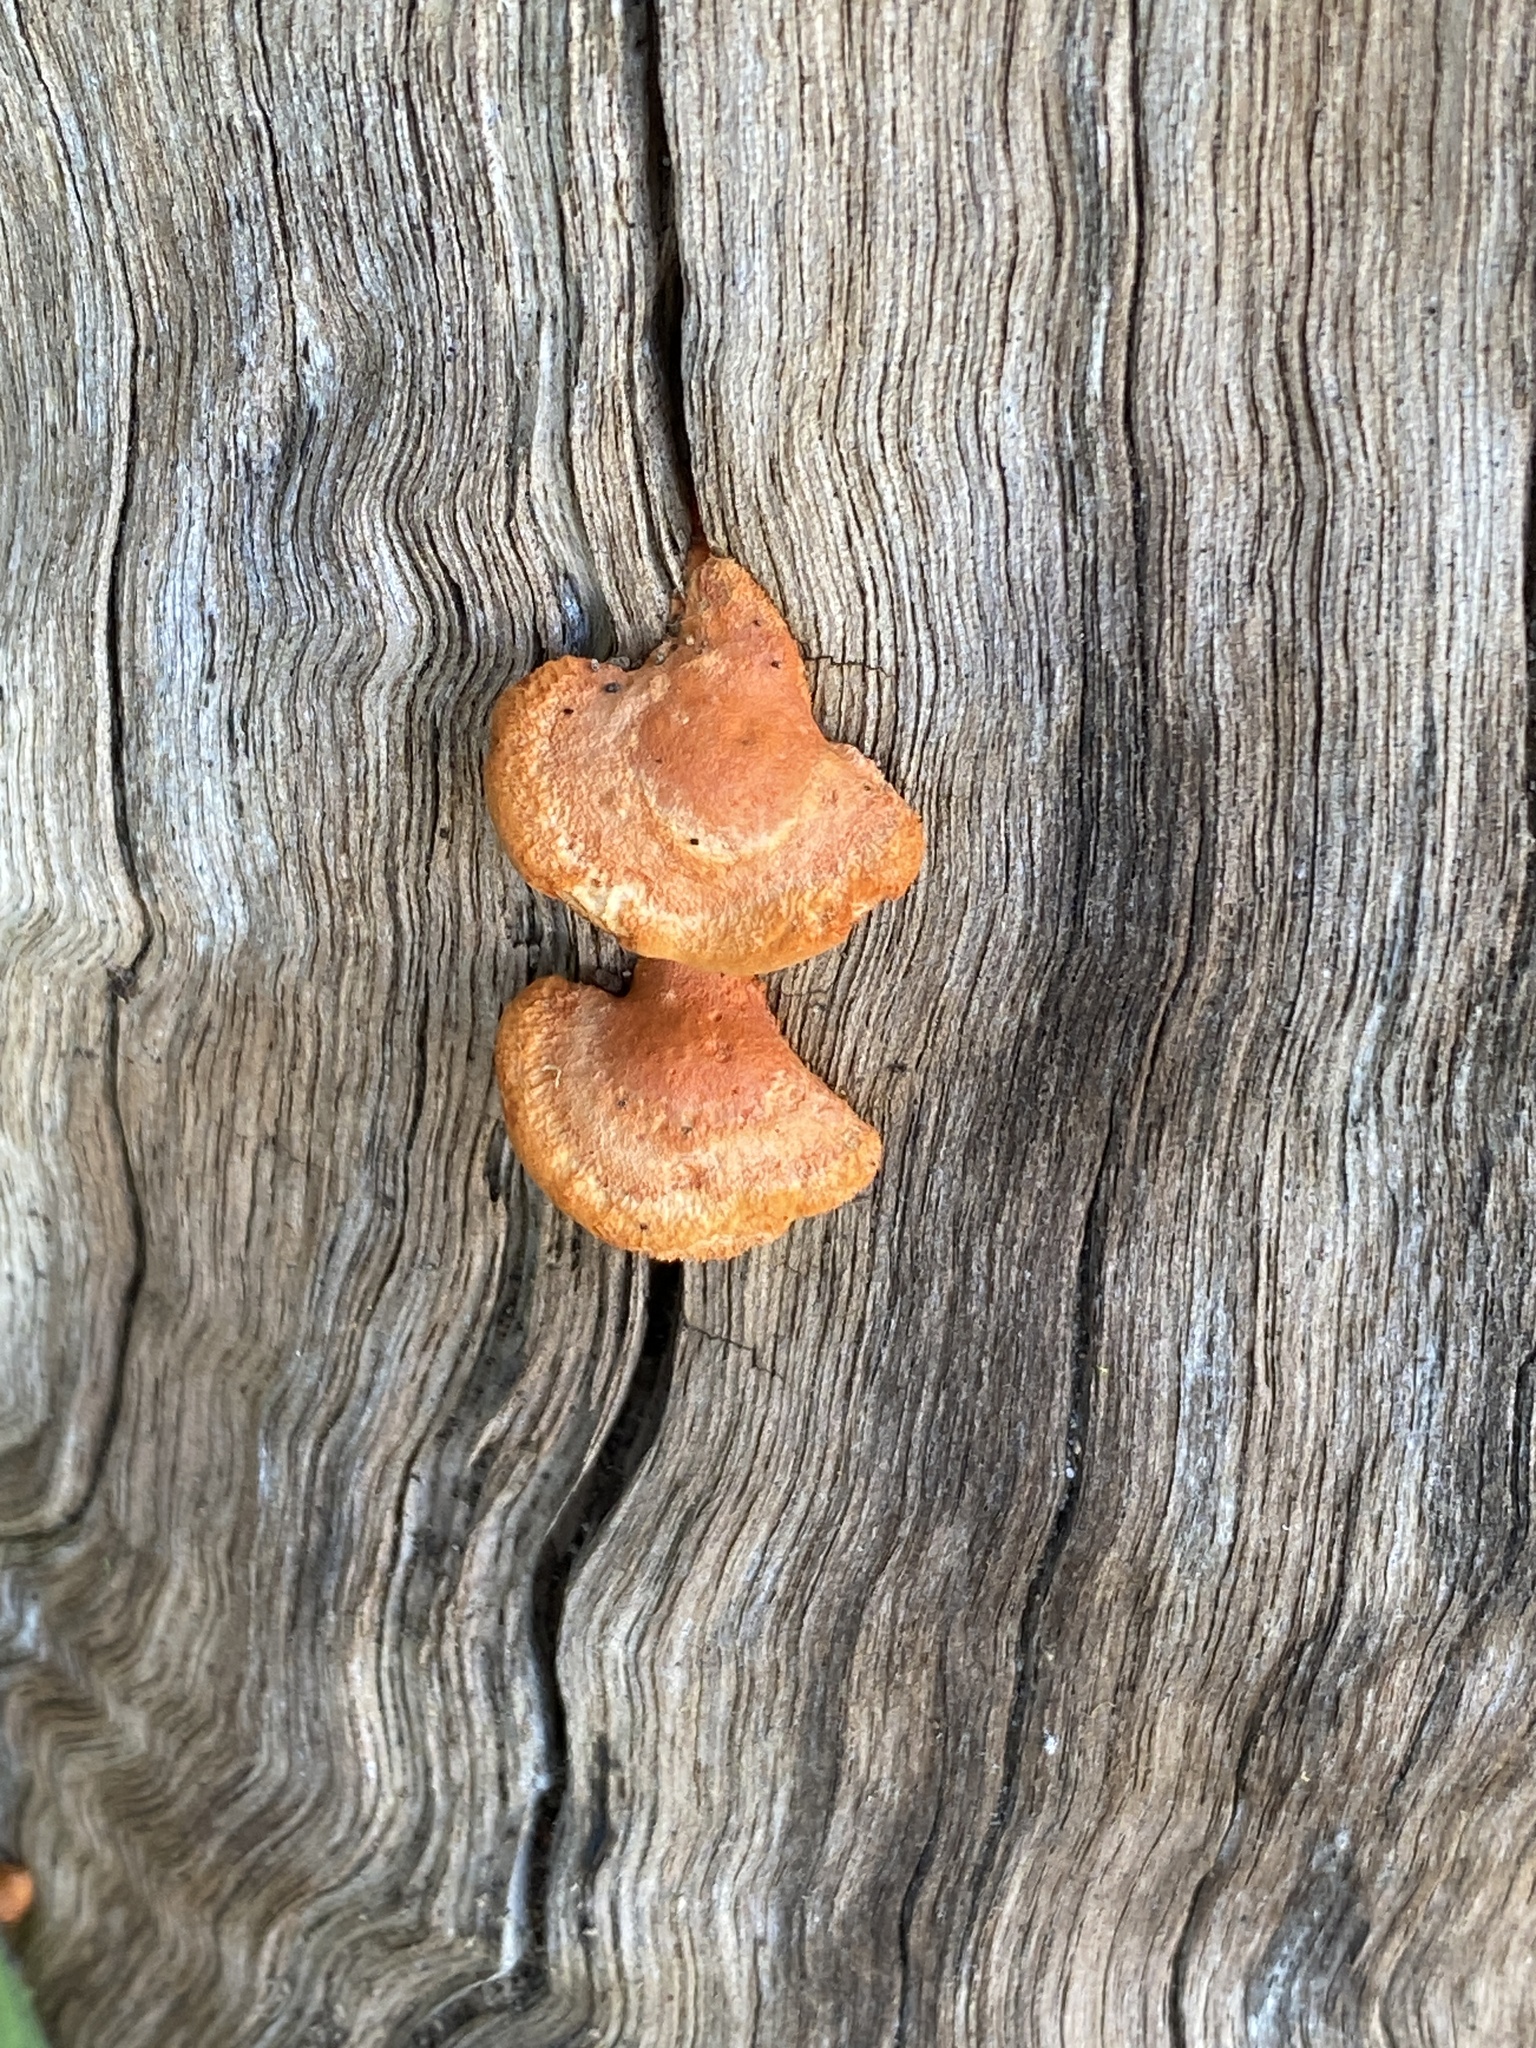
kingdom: Fungi
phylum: Basidiomycota
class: Agaricomycetes
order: Polyporales
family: Polyporaceae
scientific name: Polyporaceae
